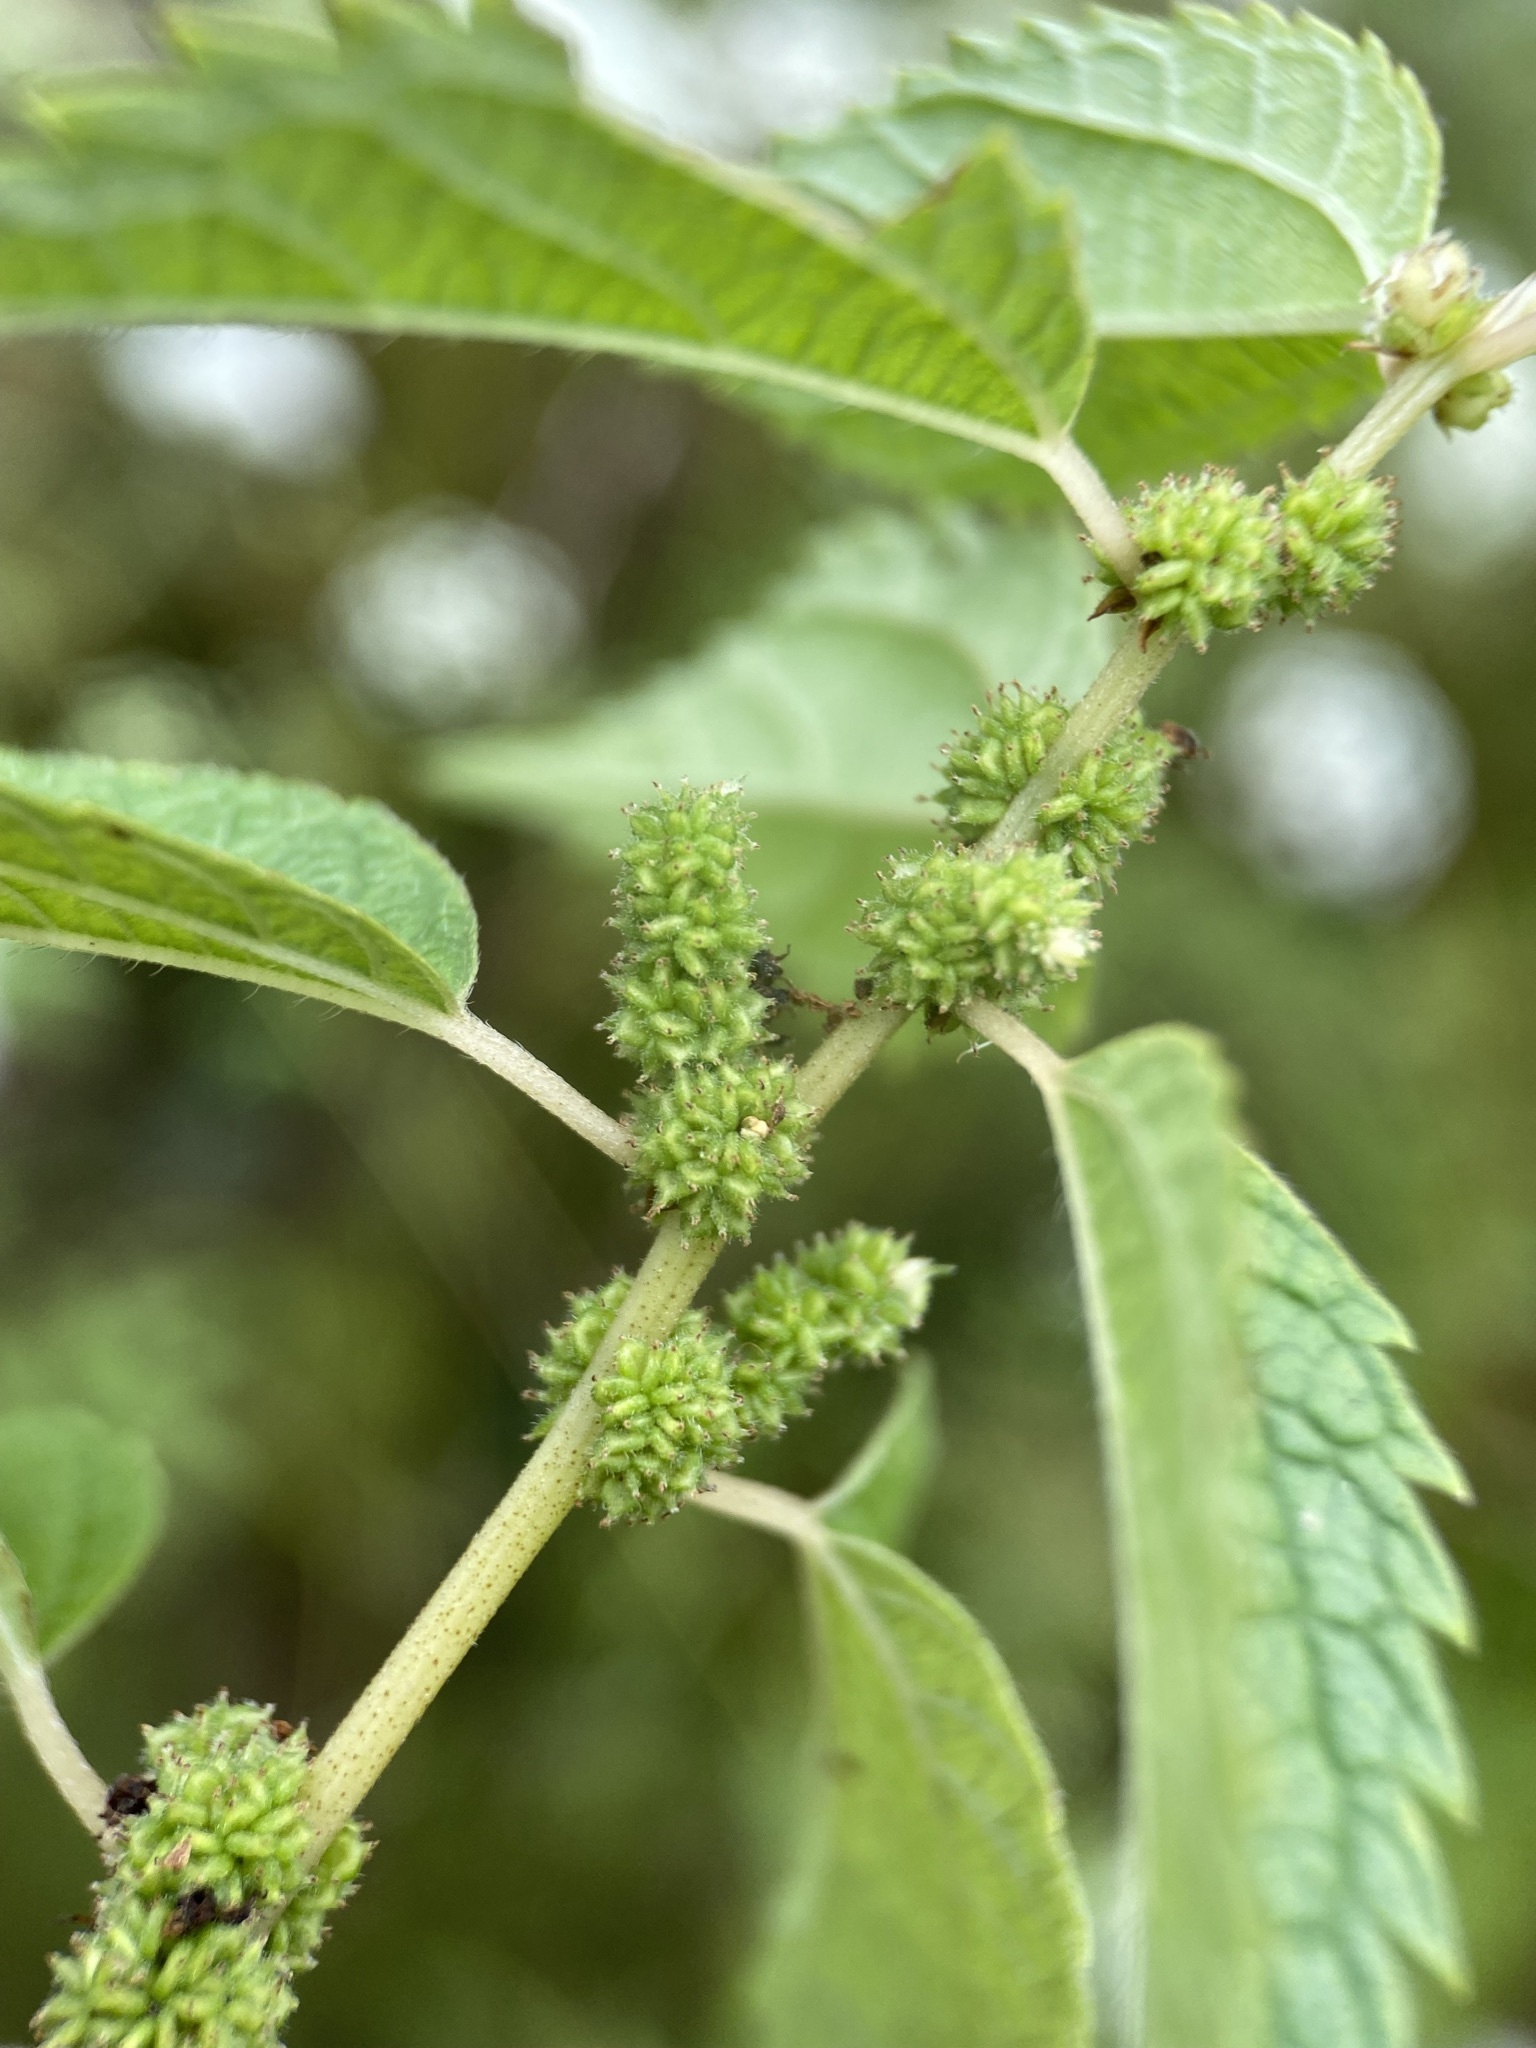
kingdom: Plantae
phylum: Tracheophyta
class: Magnoliopsida
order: Rosales
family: Urticaceae
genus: Boehmeria
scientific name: Boehmeria cylindrica
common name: Bog-hemp
